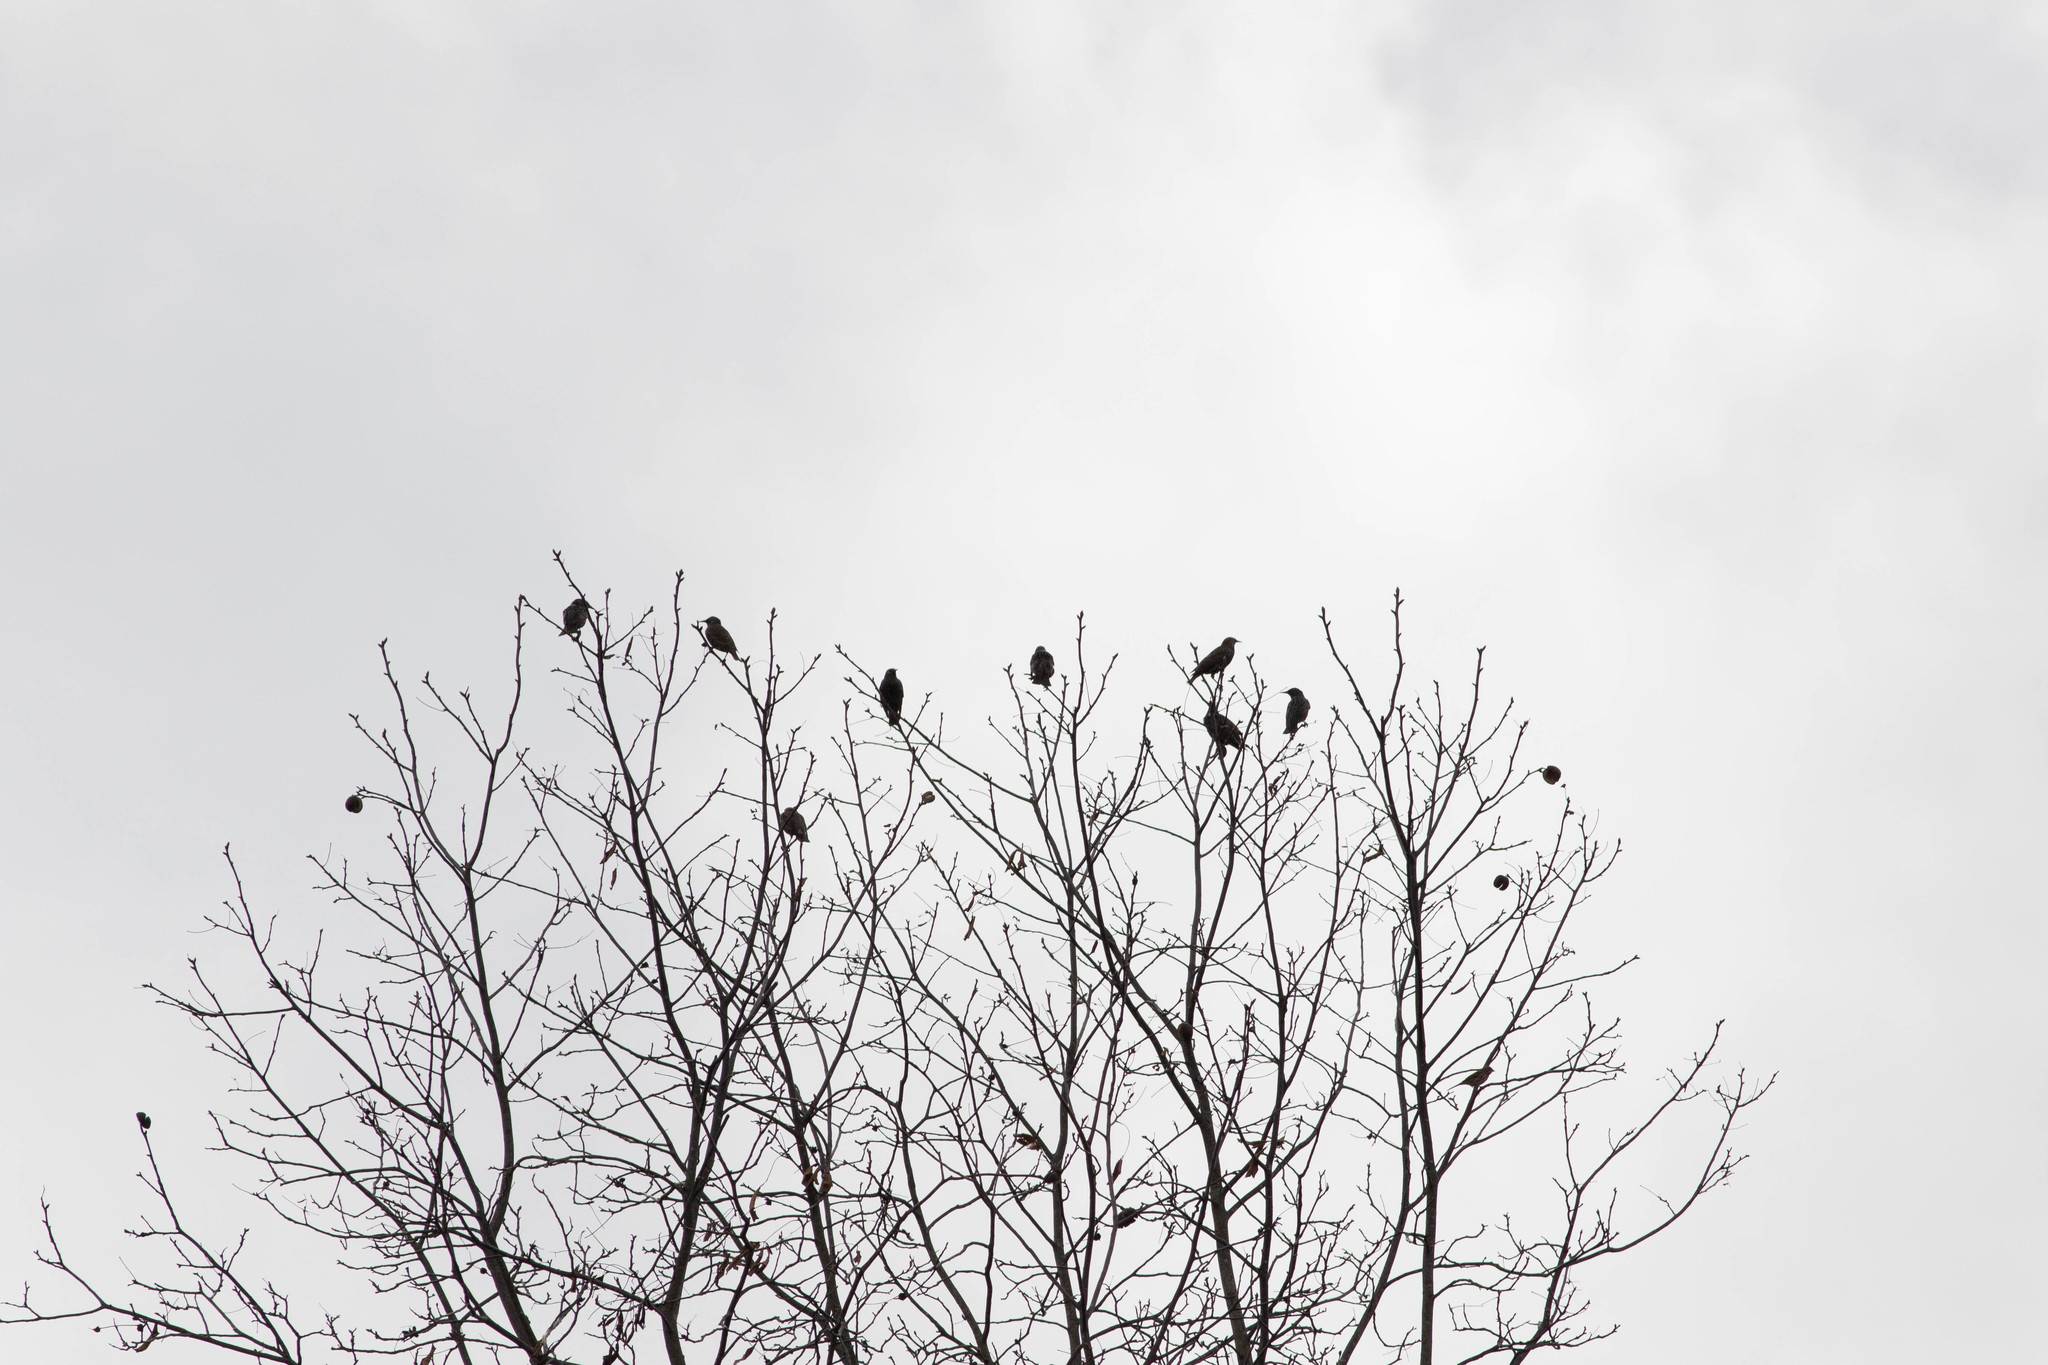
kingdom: Animalia
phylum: Chordata
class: Aves
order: Passeriformes
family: Sturnidae
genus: Sturnus
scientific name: Sturnus vulgaris
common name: Common starling
